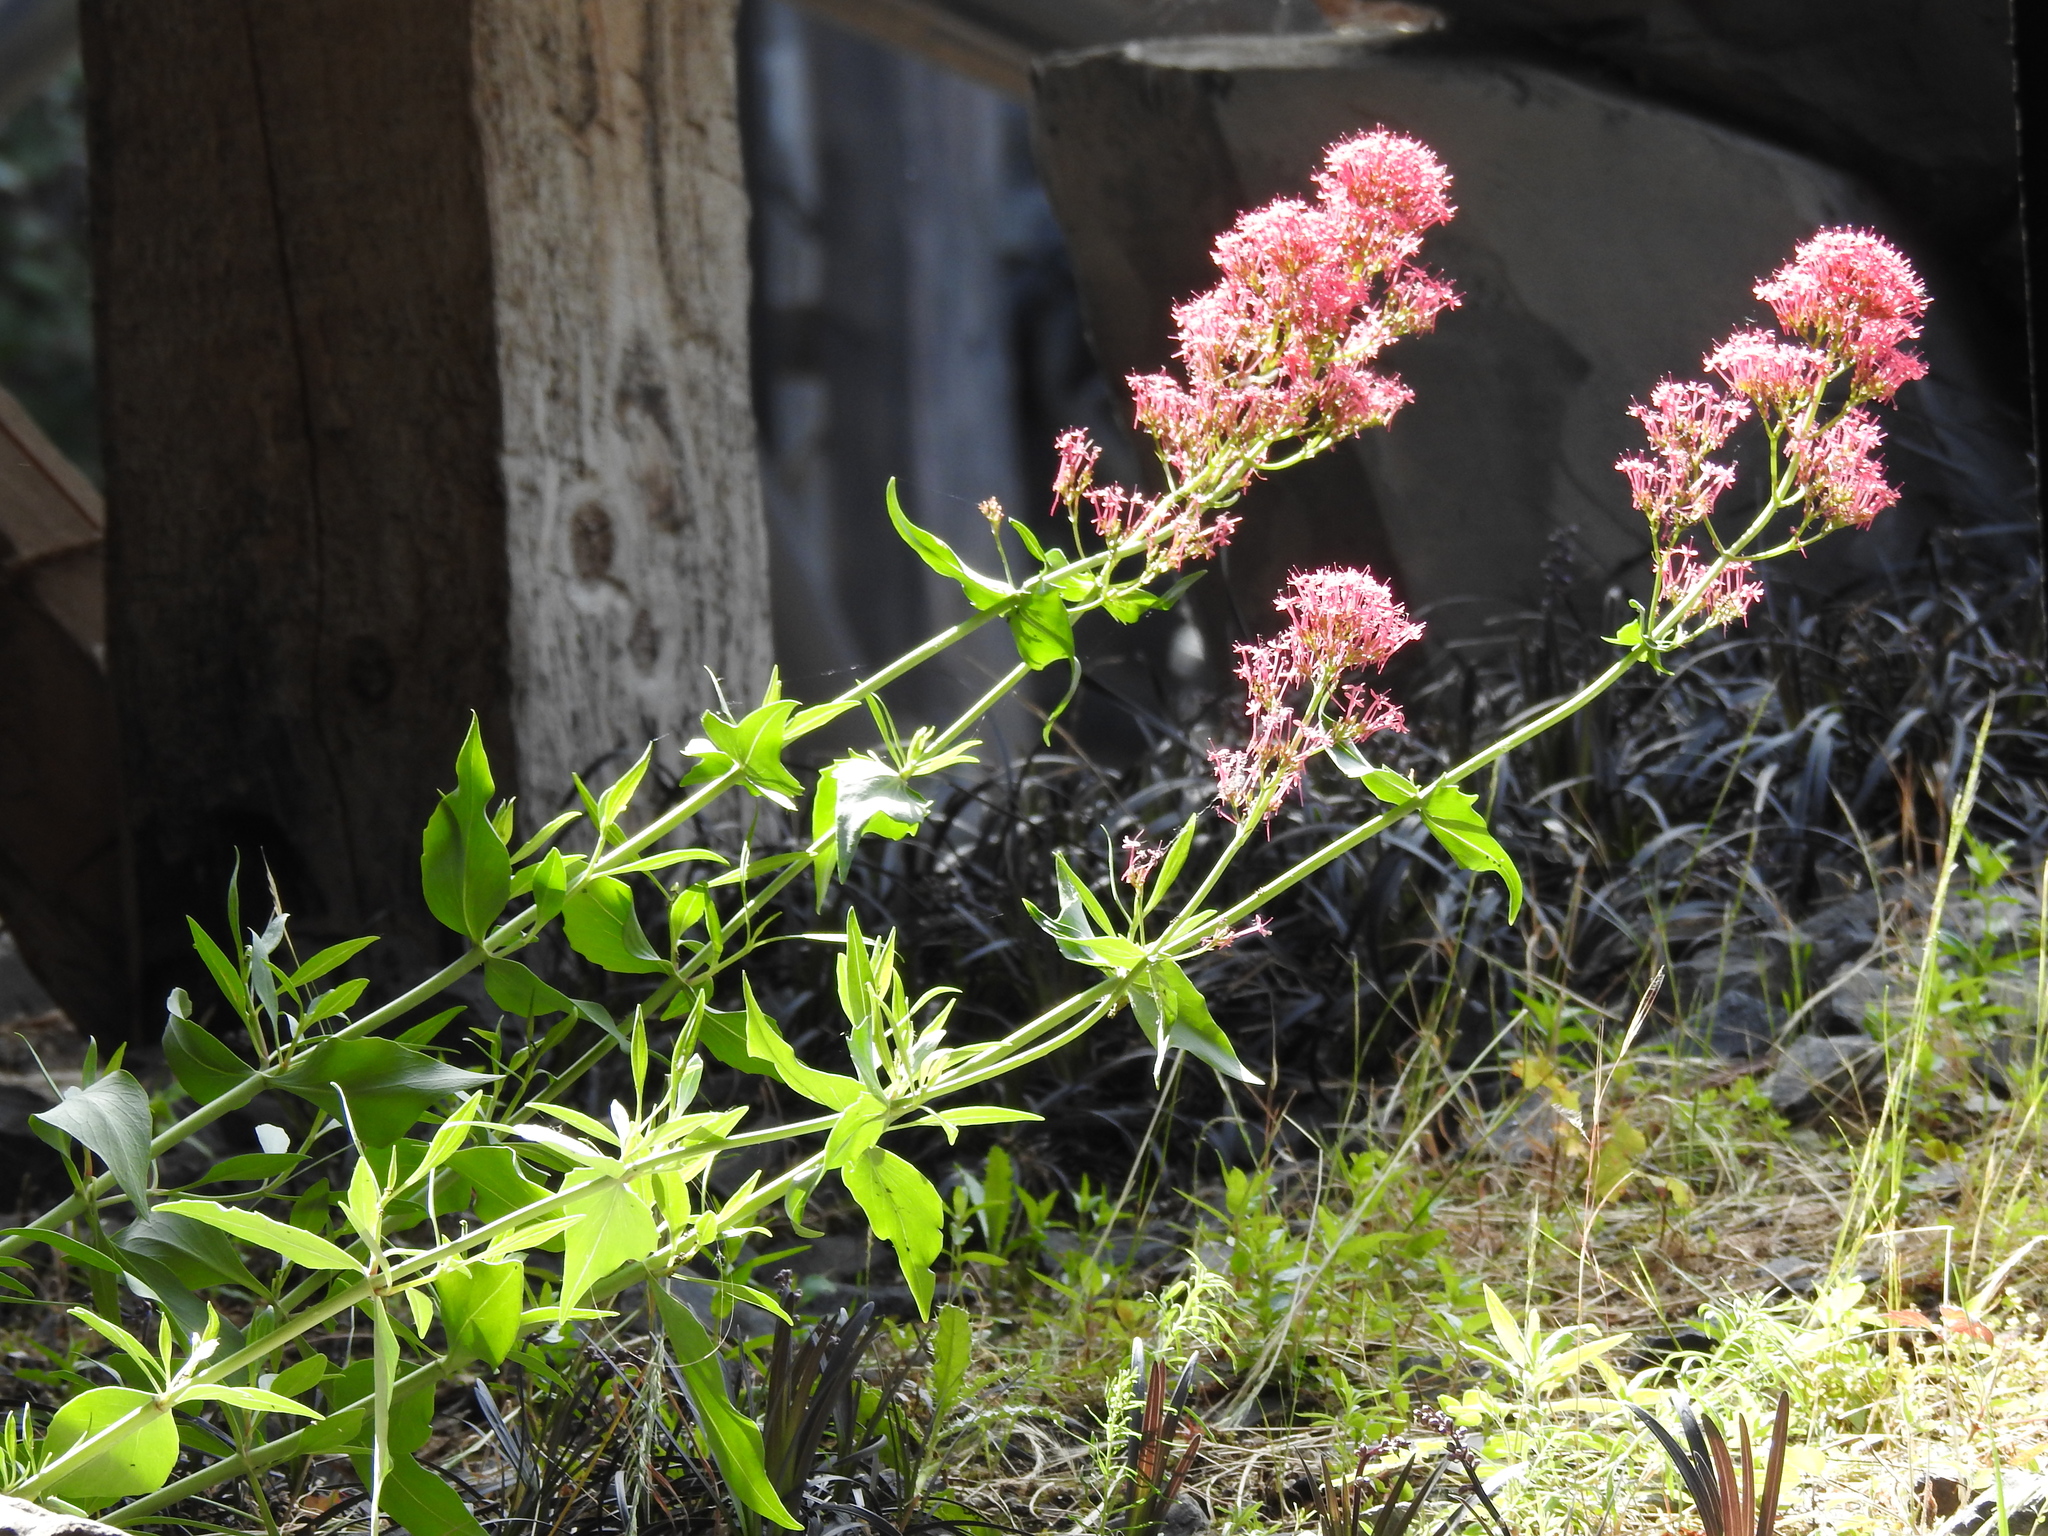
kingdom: Plantae
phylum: Tracheophyta
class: Magnoliopsida
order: Dipsacales
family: Caprifoliaceae
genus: Centranthus
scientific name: Centranthus ruber
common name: Red valerian
